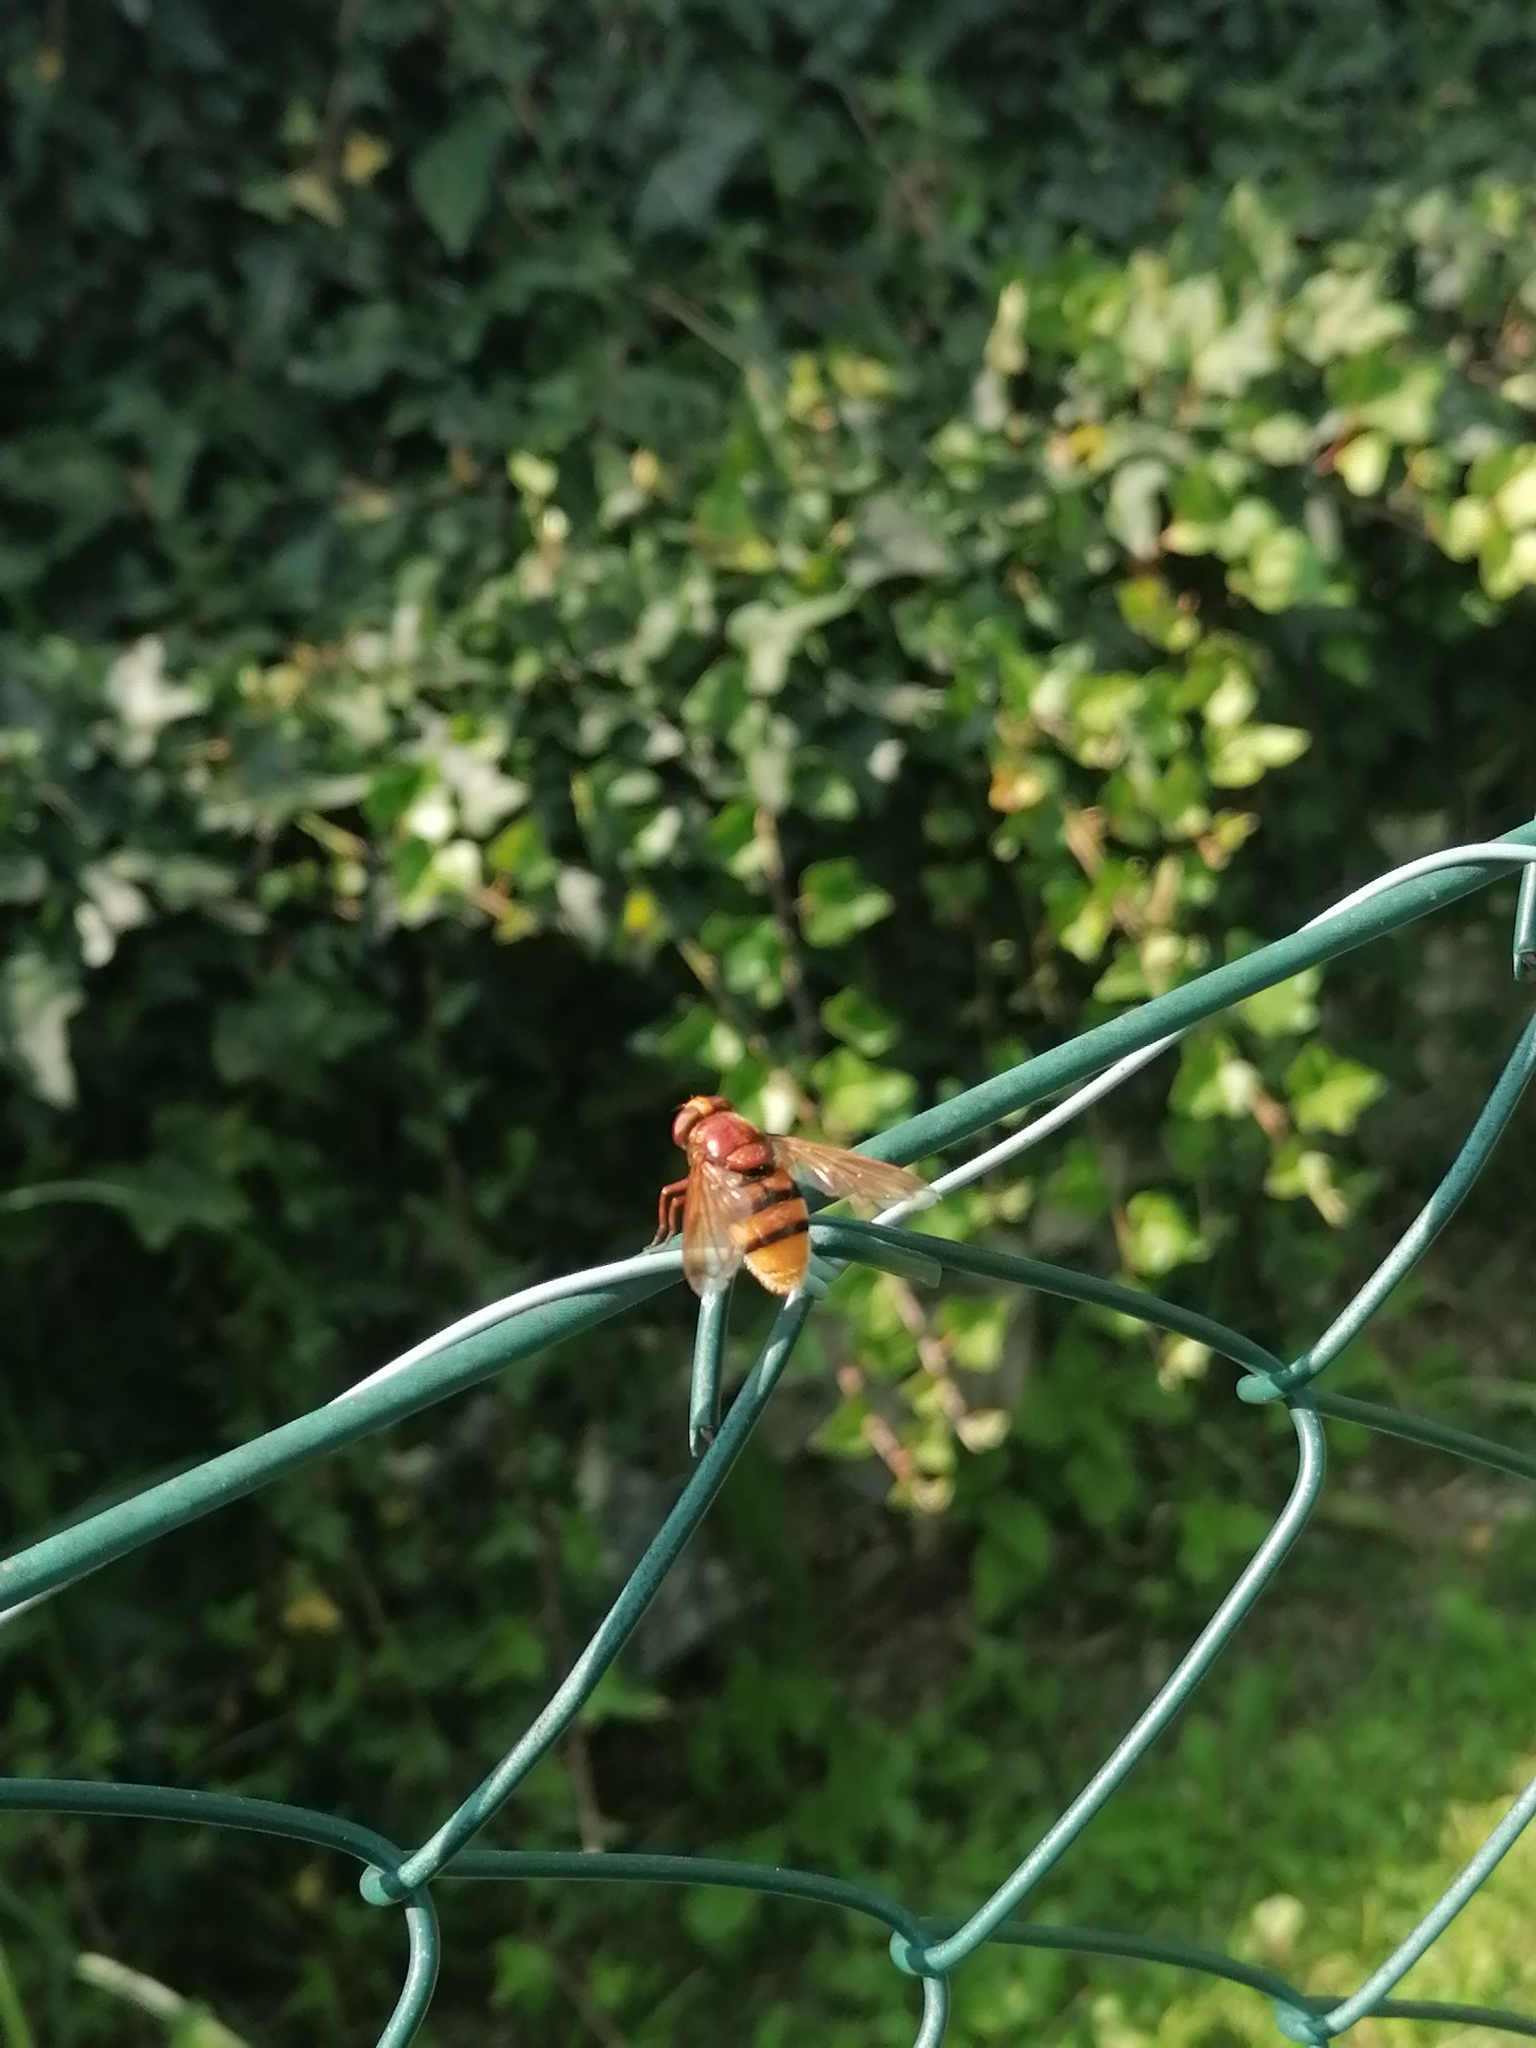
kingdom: Animalia
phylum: Arthropoda
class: Insecta
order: Diptera
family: Syrphidae
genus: Volucella
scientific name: Volucella zonaria
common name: Hornet hoverfly
